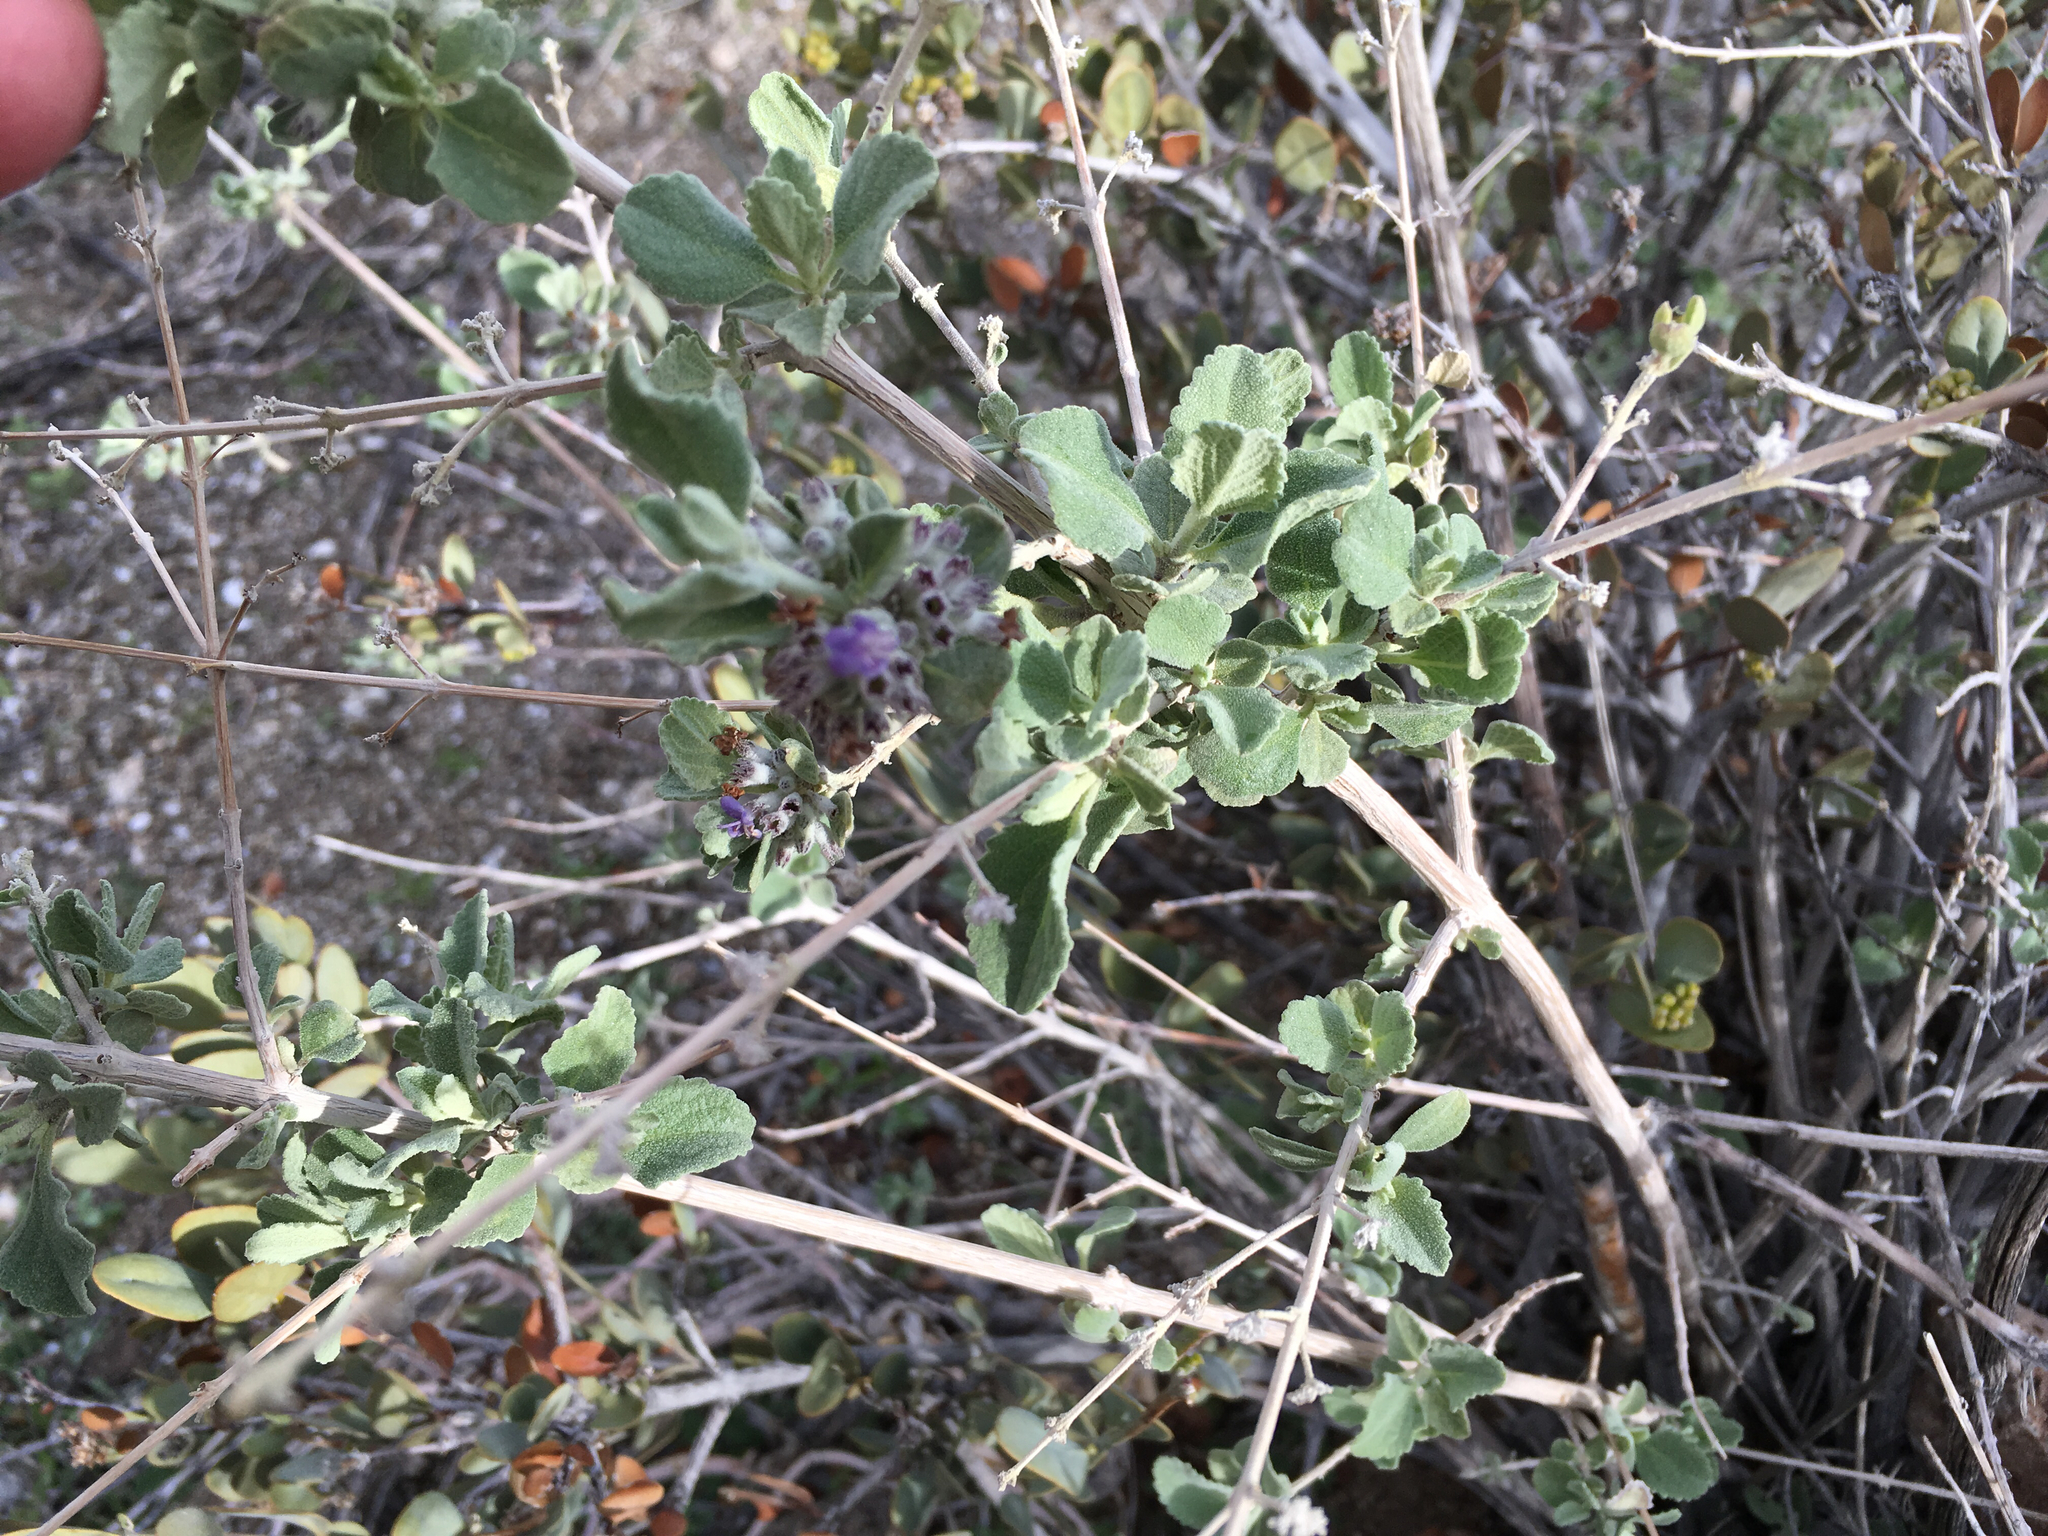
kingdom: Plantae
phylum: Tracheophyta
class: Magnoliopsida
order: Lamiales
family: Lamiaceae
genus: Condea
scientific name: Condea emoryi
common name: Chia
